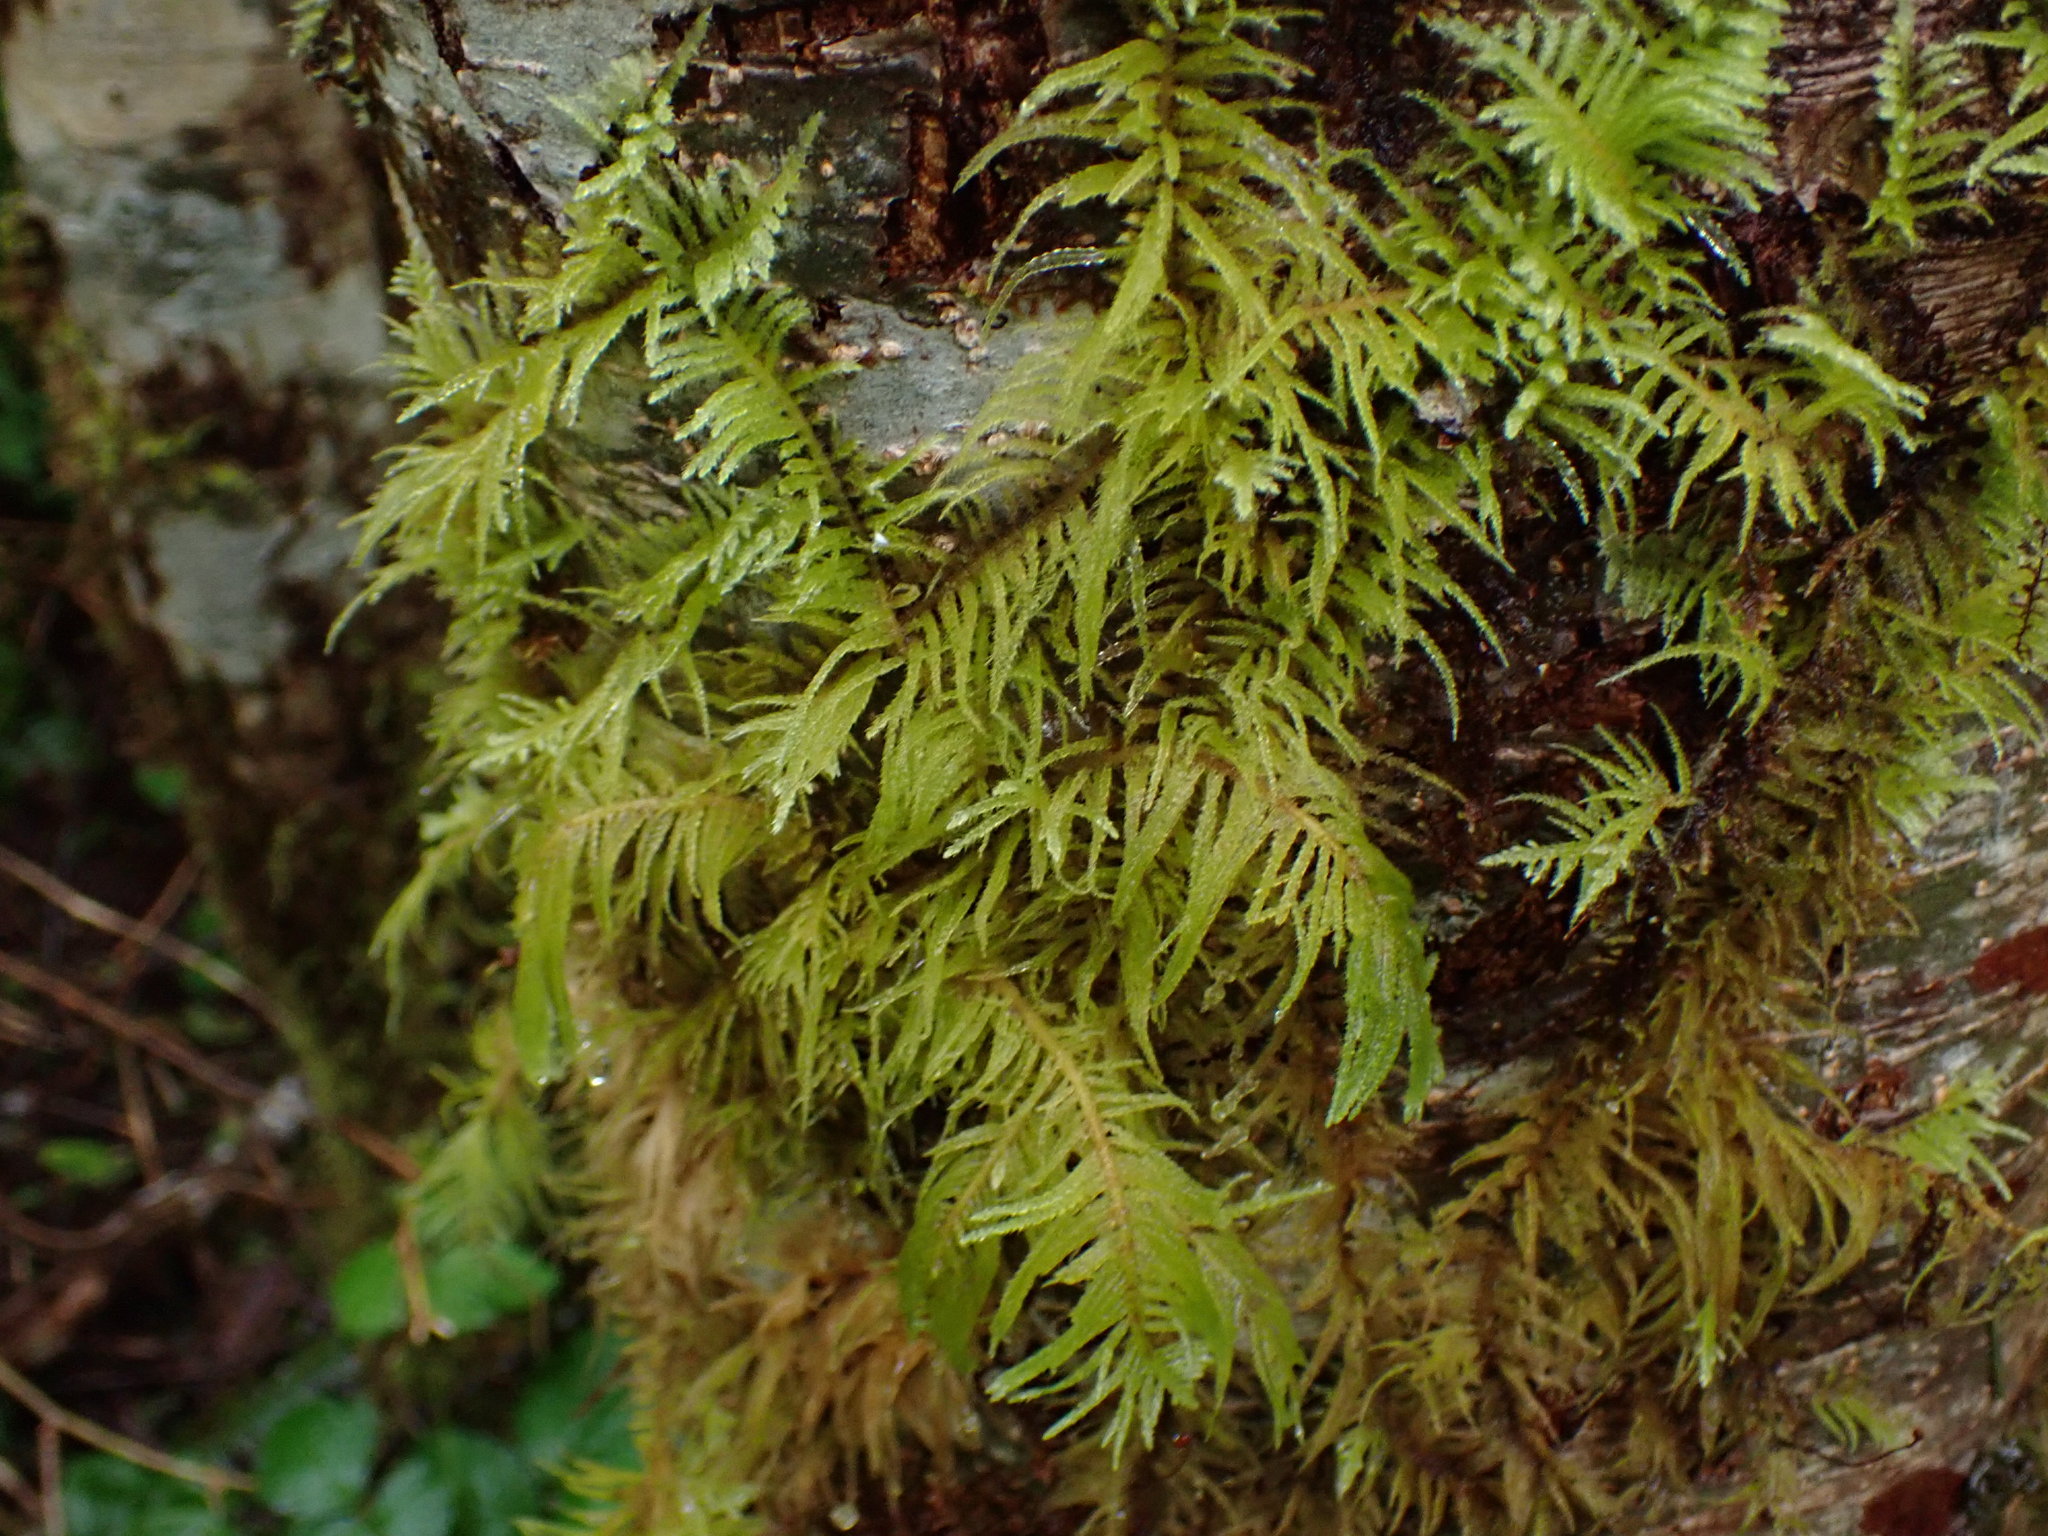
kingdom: Plantae
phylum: Bryophyta
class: Bryopsida
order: Hypnales
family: Brachytheciaceae
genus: Kindbergia
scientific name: Kindbergia oregana
